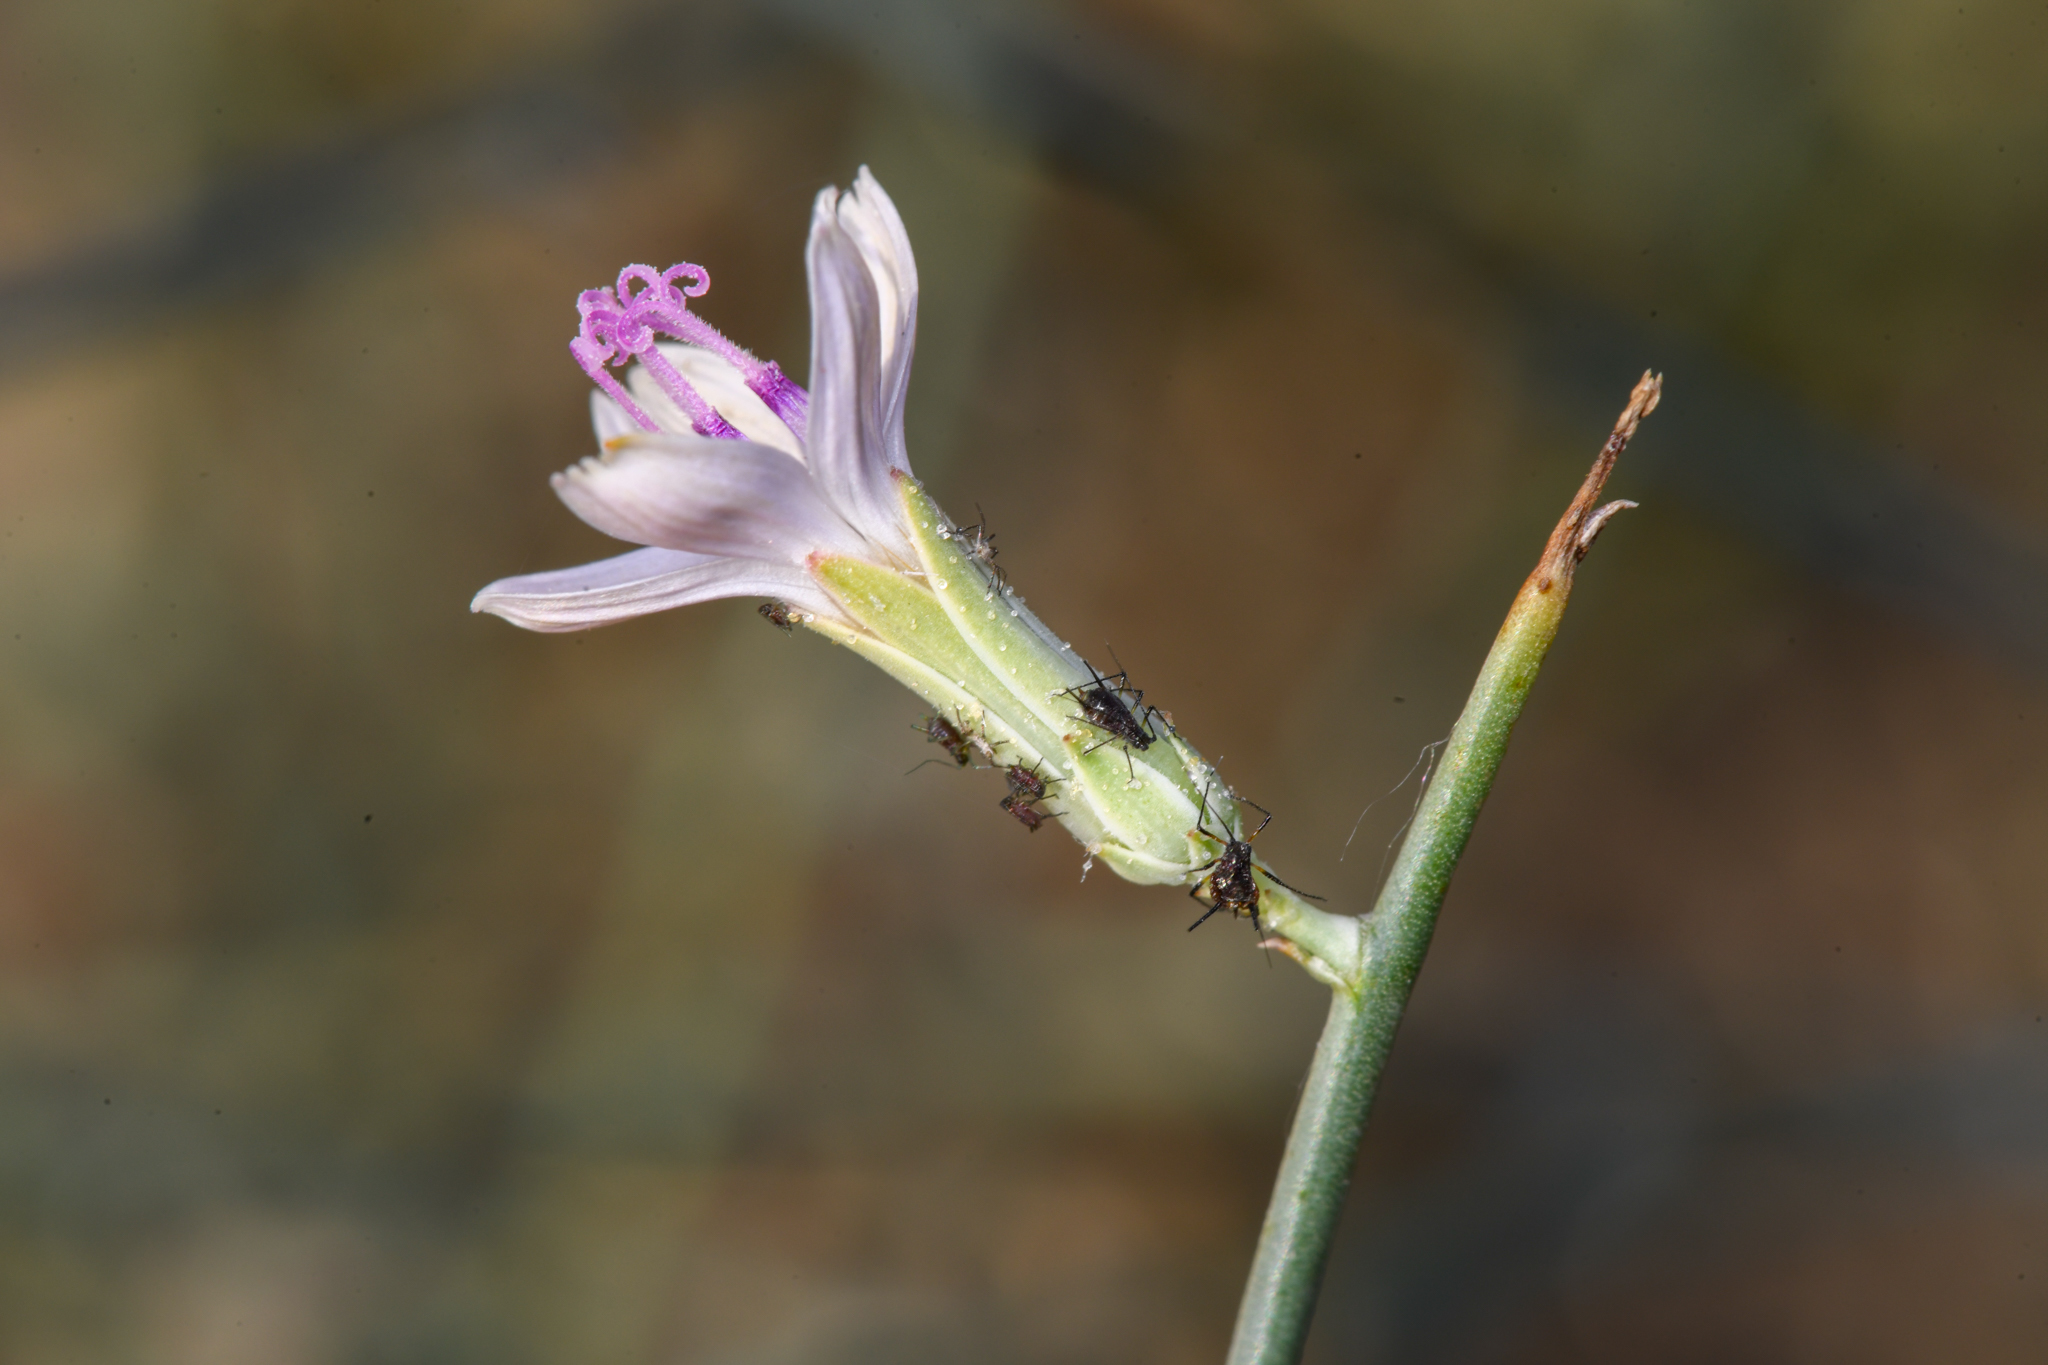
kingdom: Plantae
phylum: Tracheophyta
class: Magnoliopsida
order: Asterales
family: Asteraceae
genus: Stephanomeria
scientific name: Stephanomeria pauciflora
